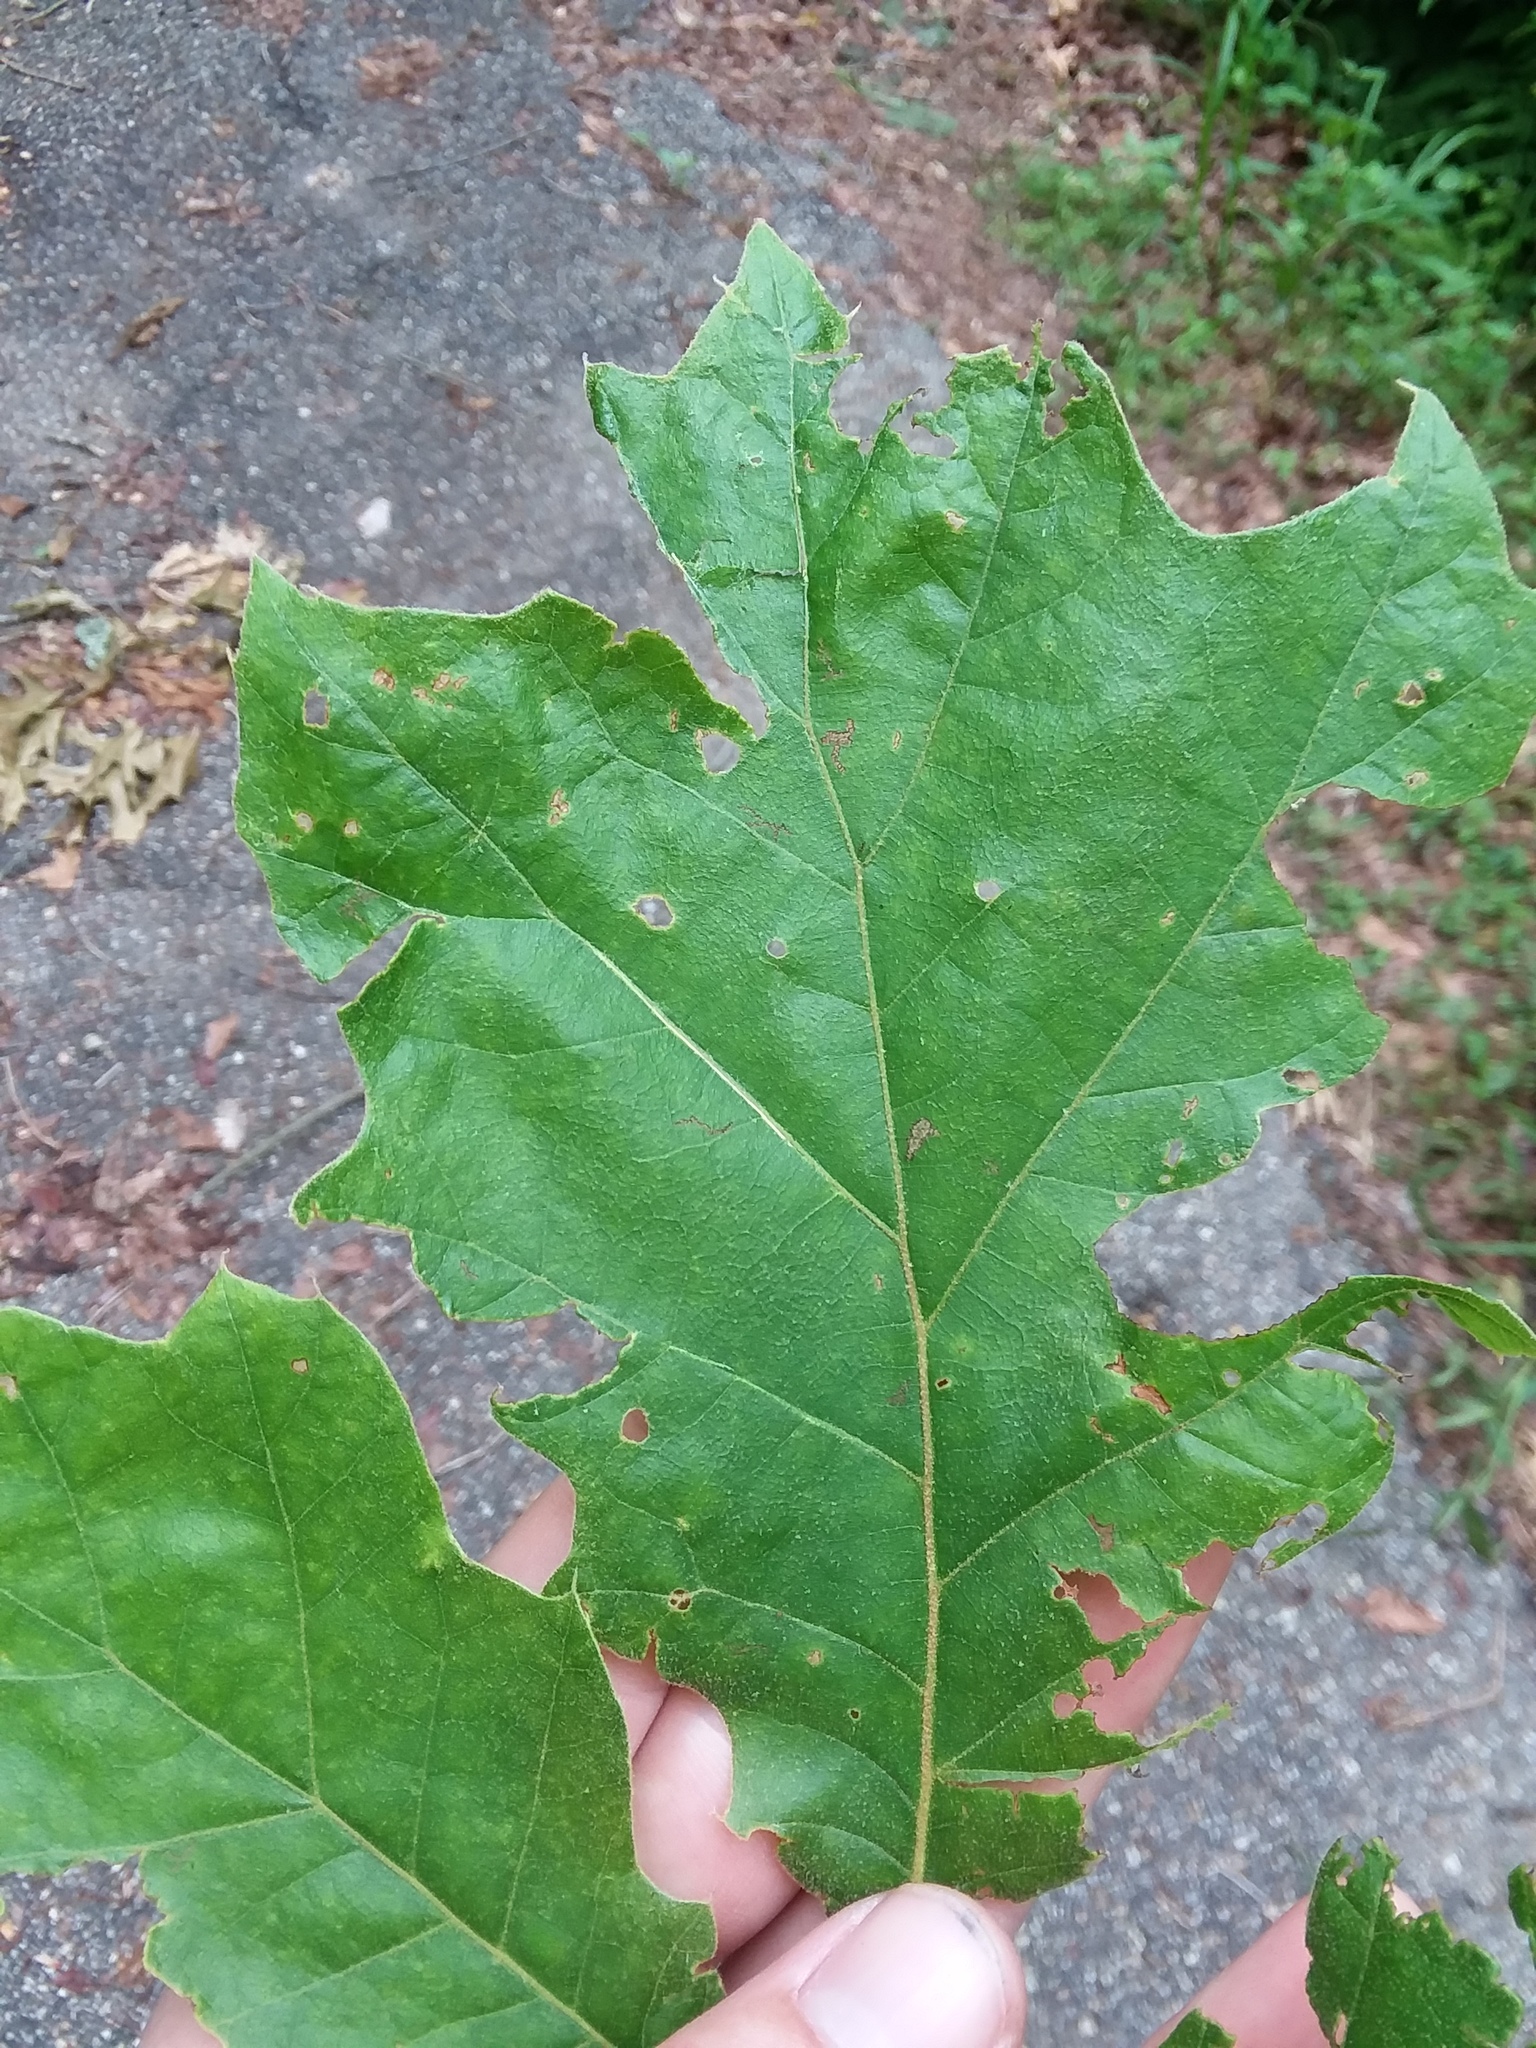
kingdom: Plantae
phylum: Tracheophyta
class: Magnoliopsida
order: Fagales
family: Fagaceae
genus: Quercus
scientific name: Quercus velutina
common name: Black oak
